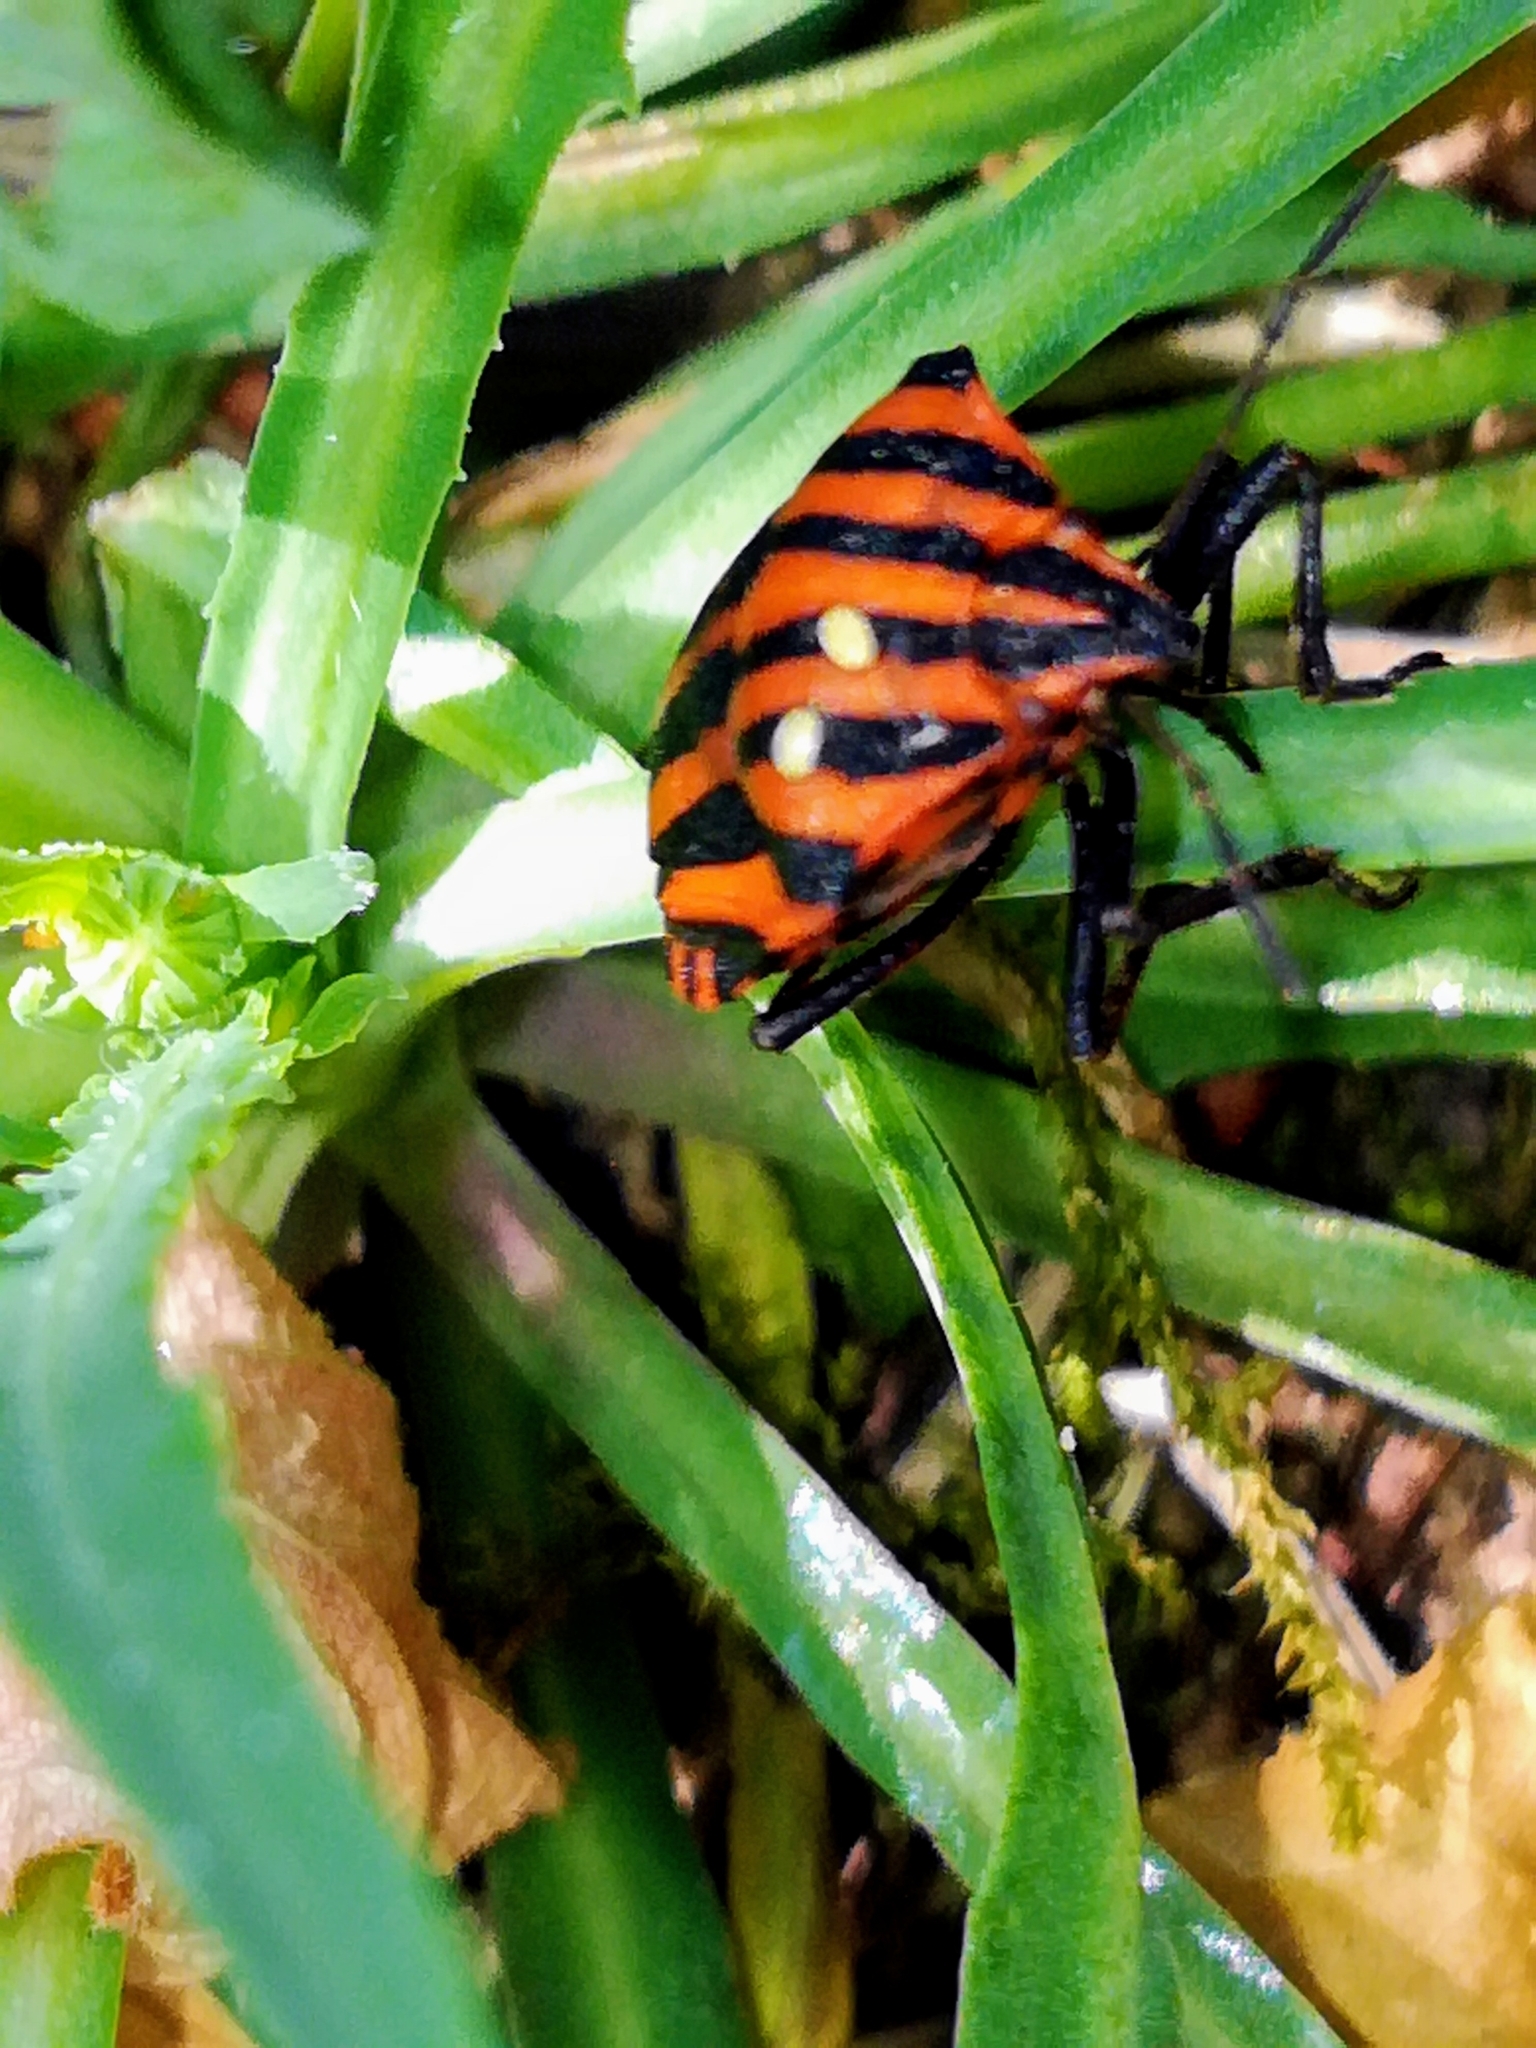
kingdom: Animalia
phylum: Arthropoda
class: Insecta
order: Hemiptera
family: Pentatomidae
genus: Graphosoma
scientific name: Graphosoma italicum
